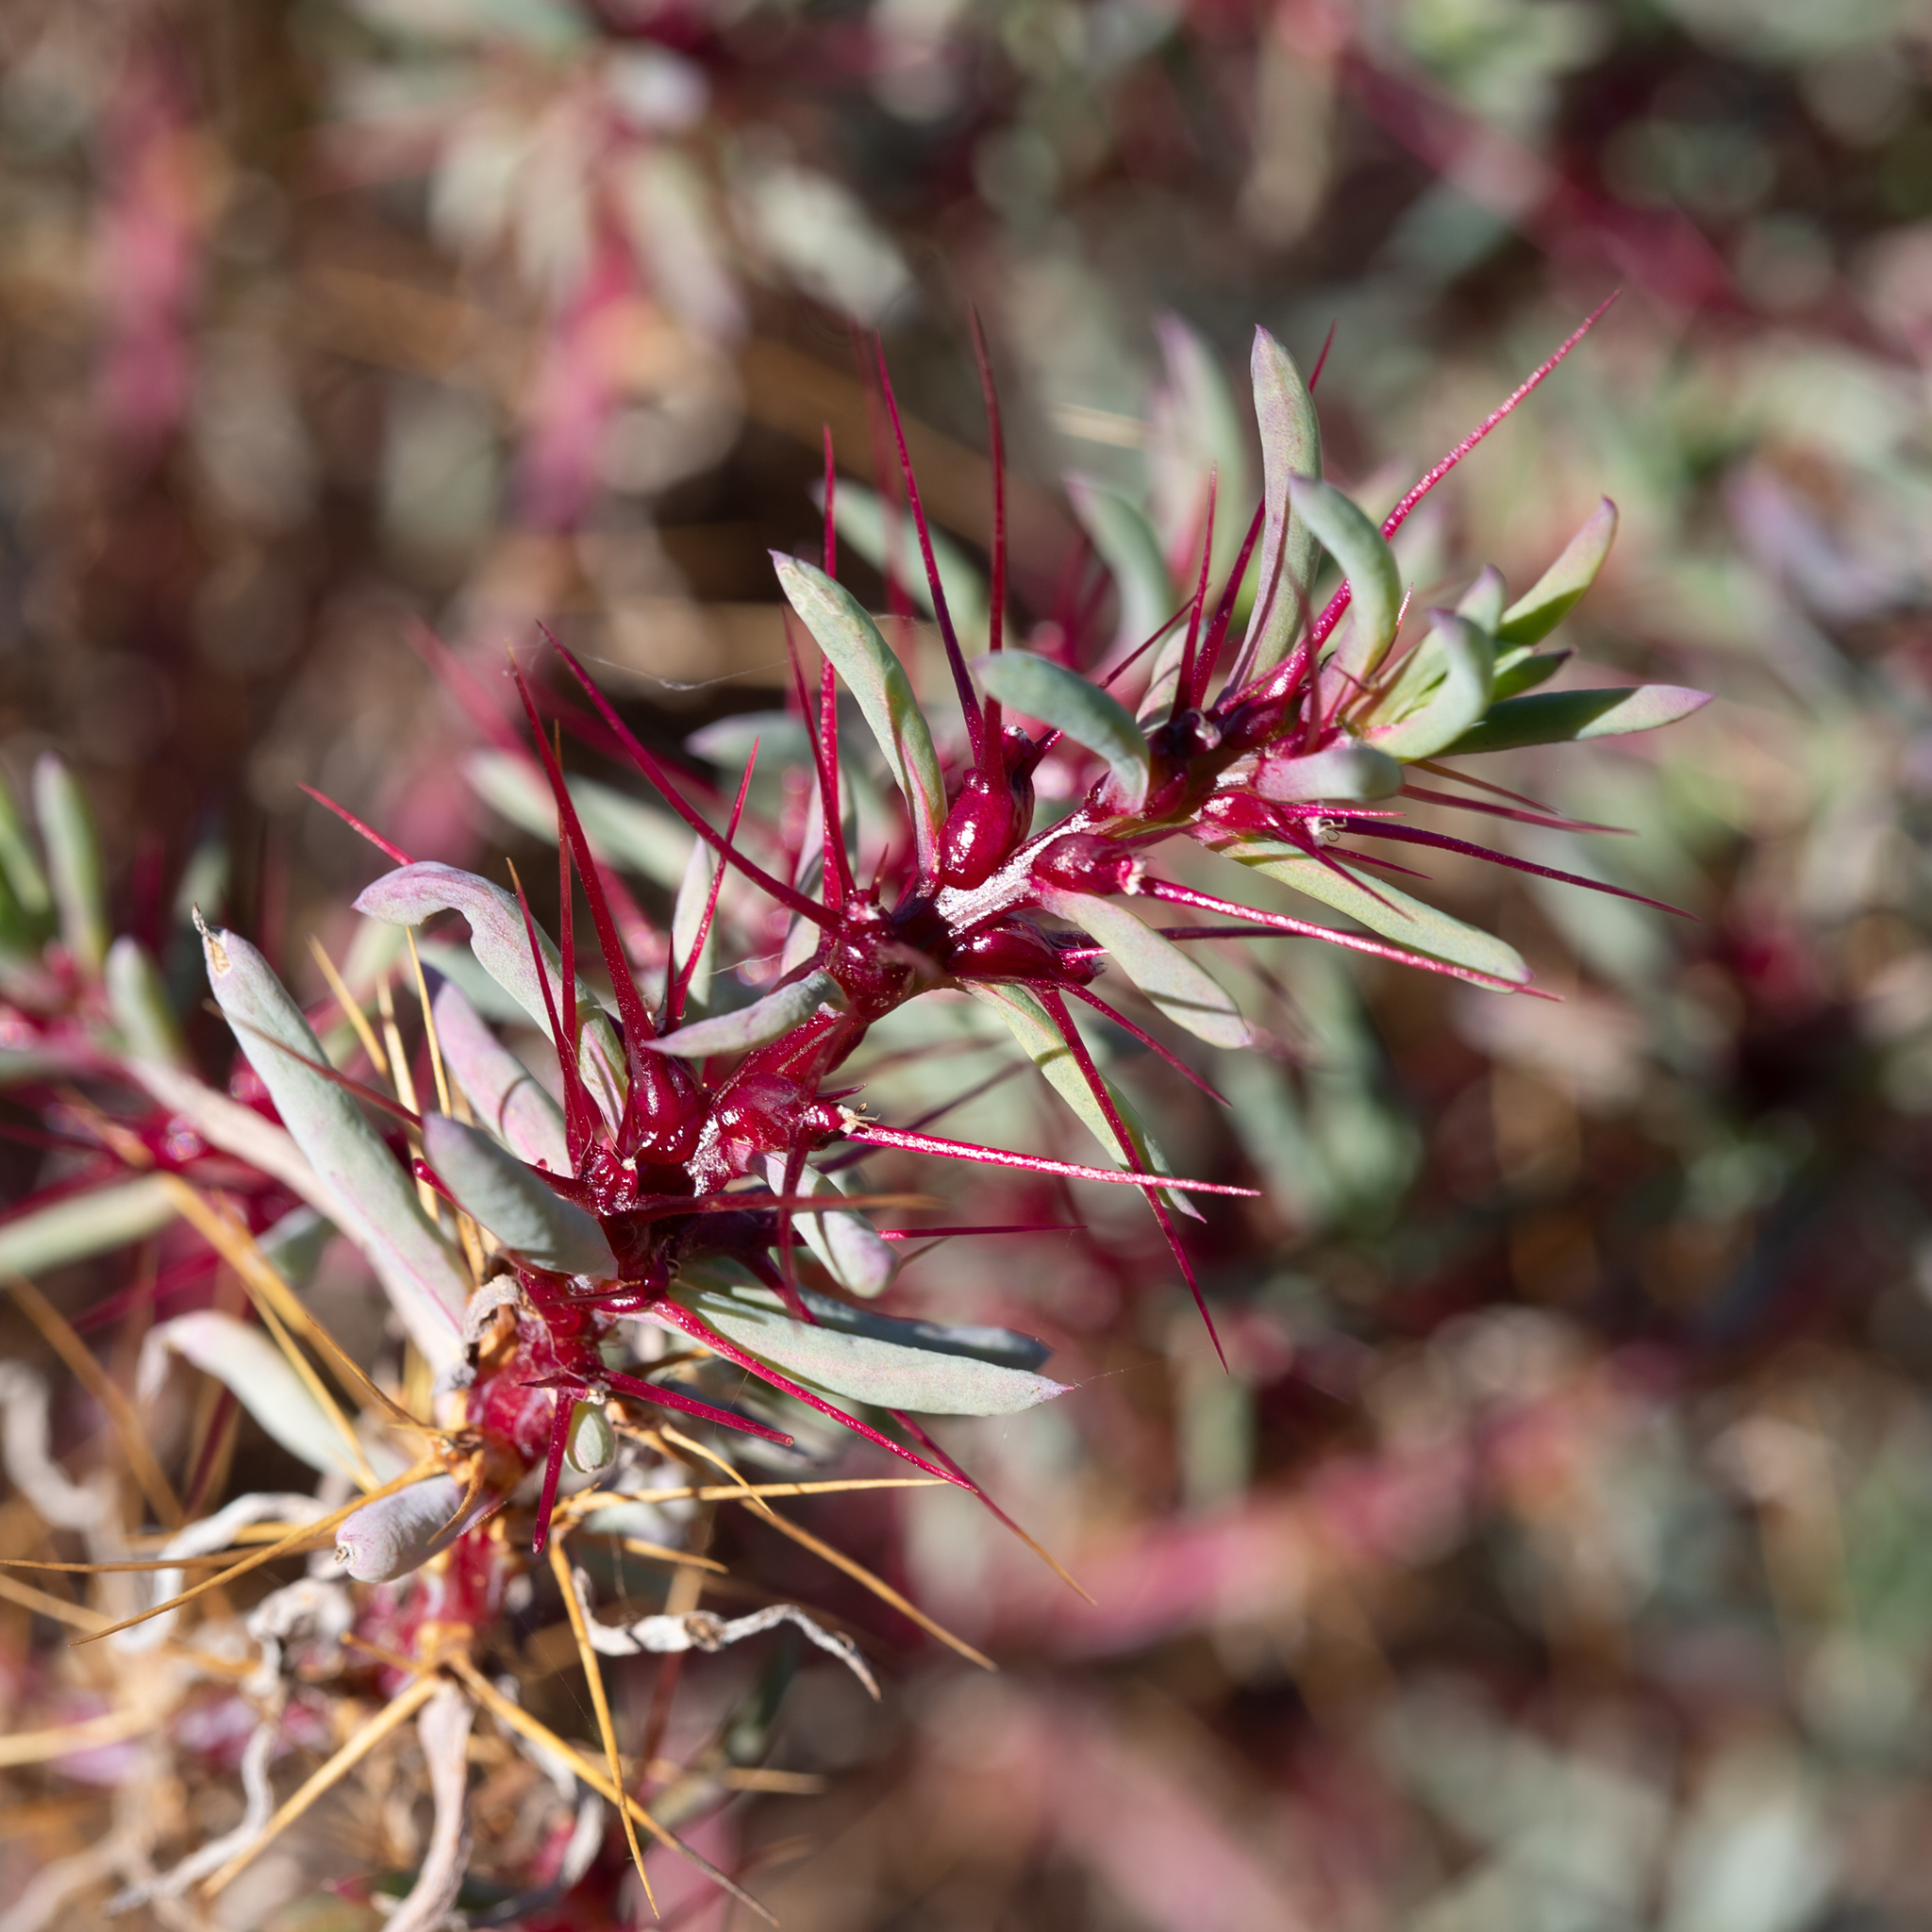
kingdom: Plantae
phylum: Tracheophyta
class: Magnoliopsida
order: Caryophyllales
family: Amaranthaceae
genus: Sclerolaena
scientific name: Sclerolaena longicuspis
